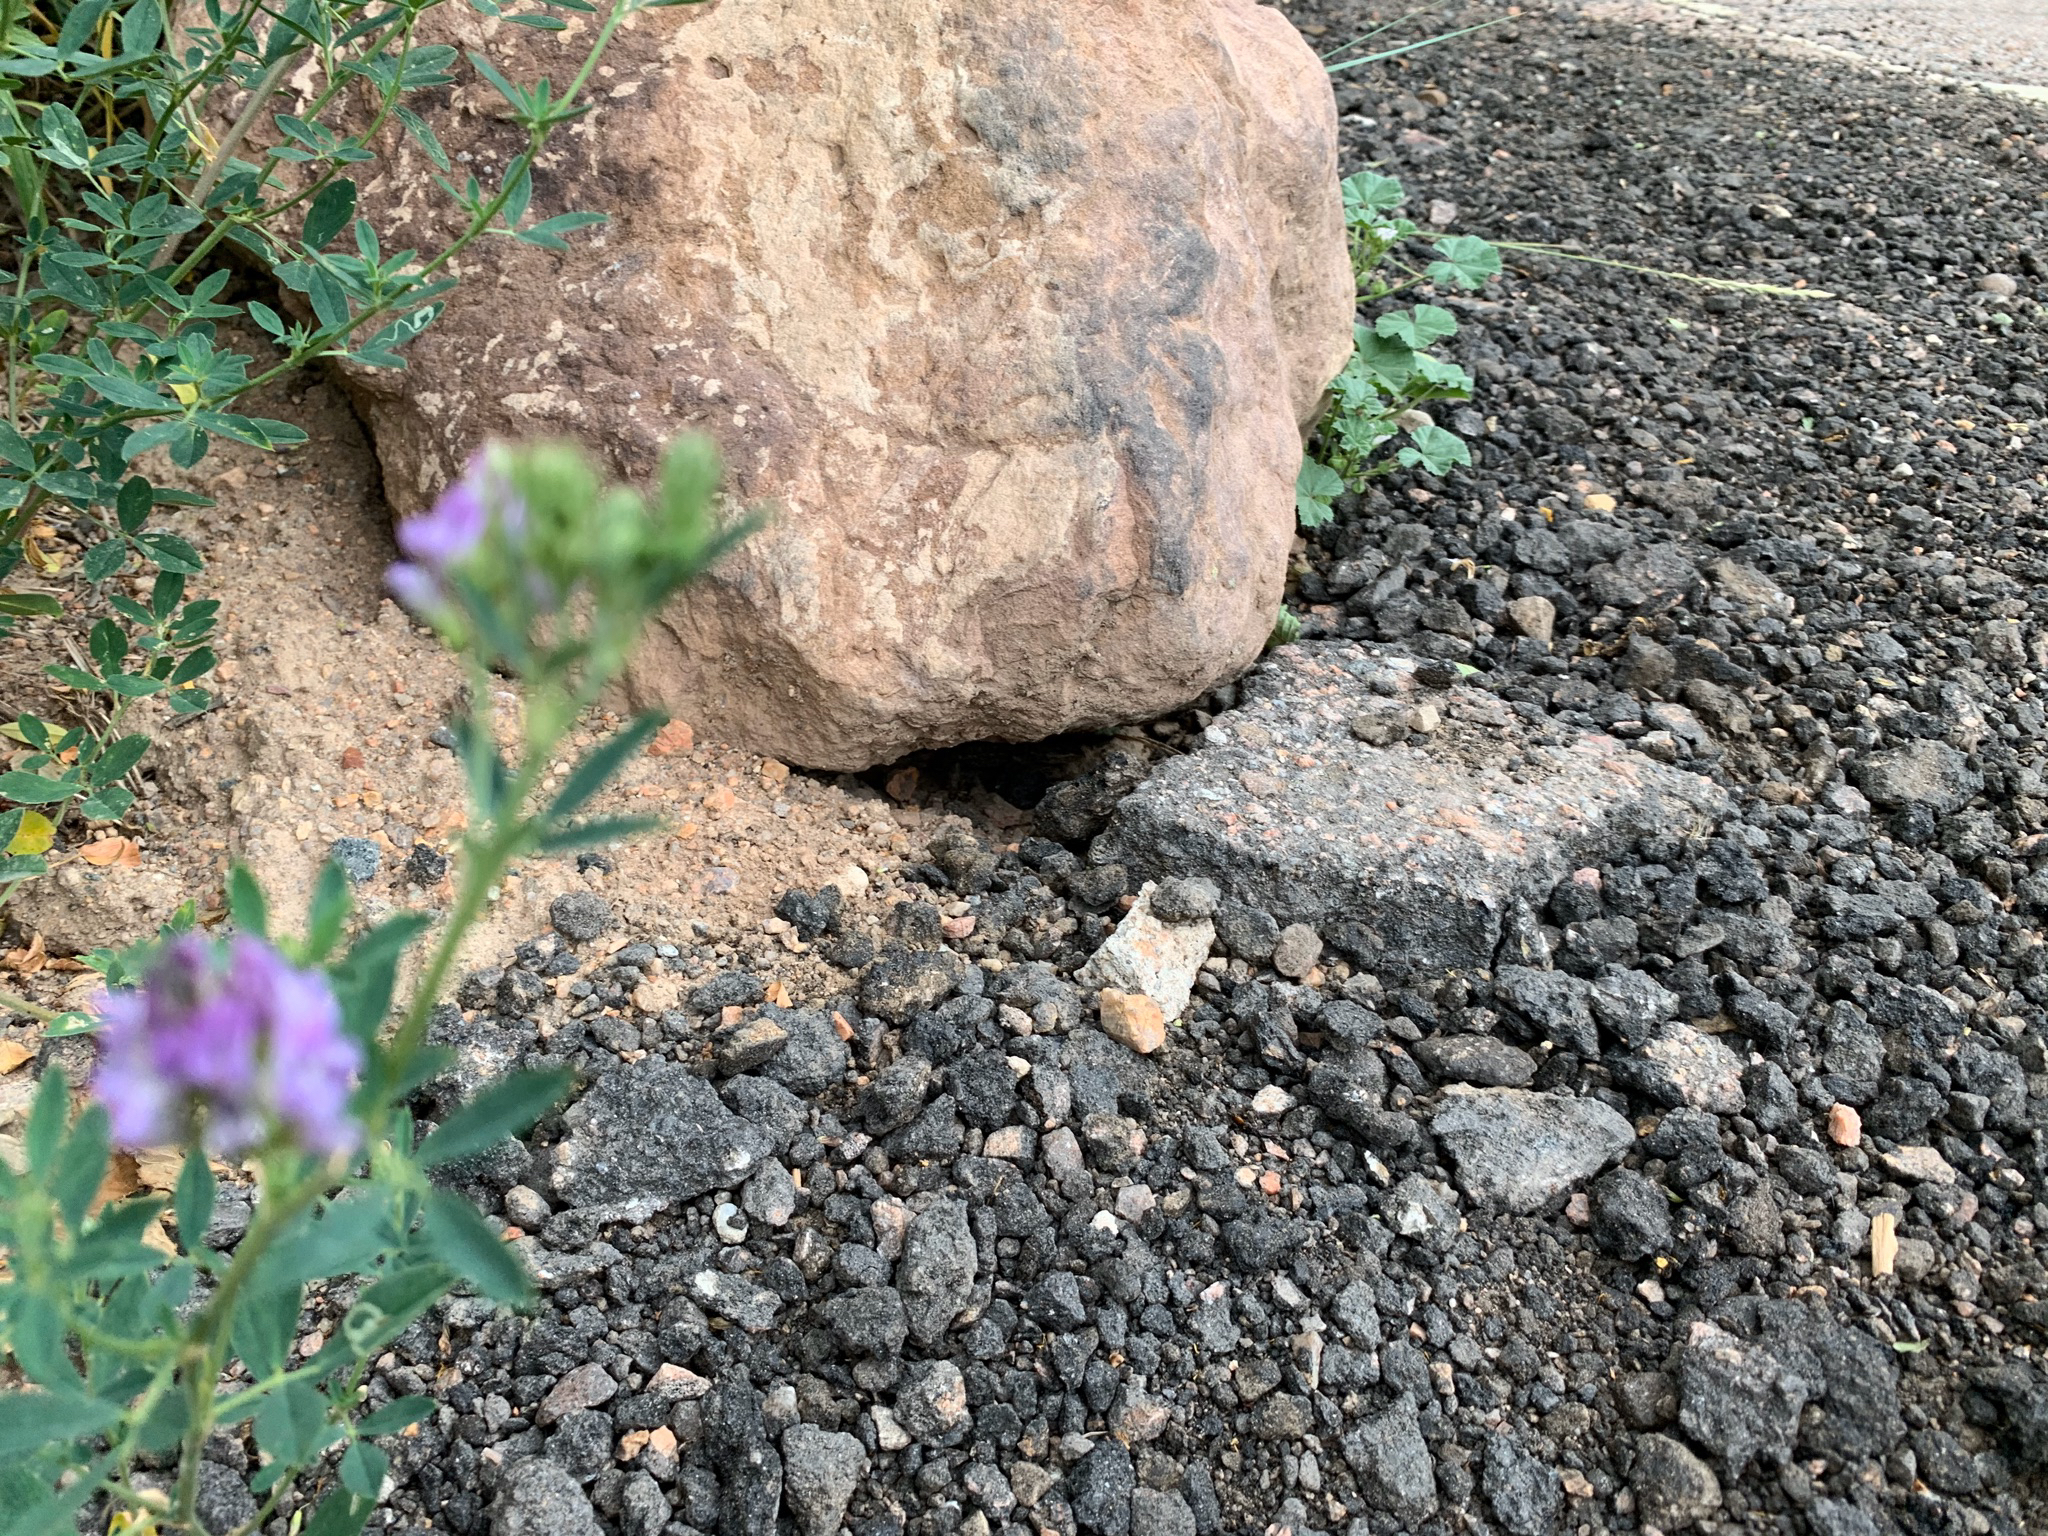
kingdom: Plantae
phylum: Tracheophyta
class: Magnoliopsida
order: Fabales
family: Fabaceae
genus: Medicago
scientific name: Medicago sativa
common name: Alfalfa
